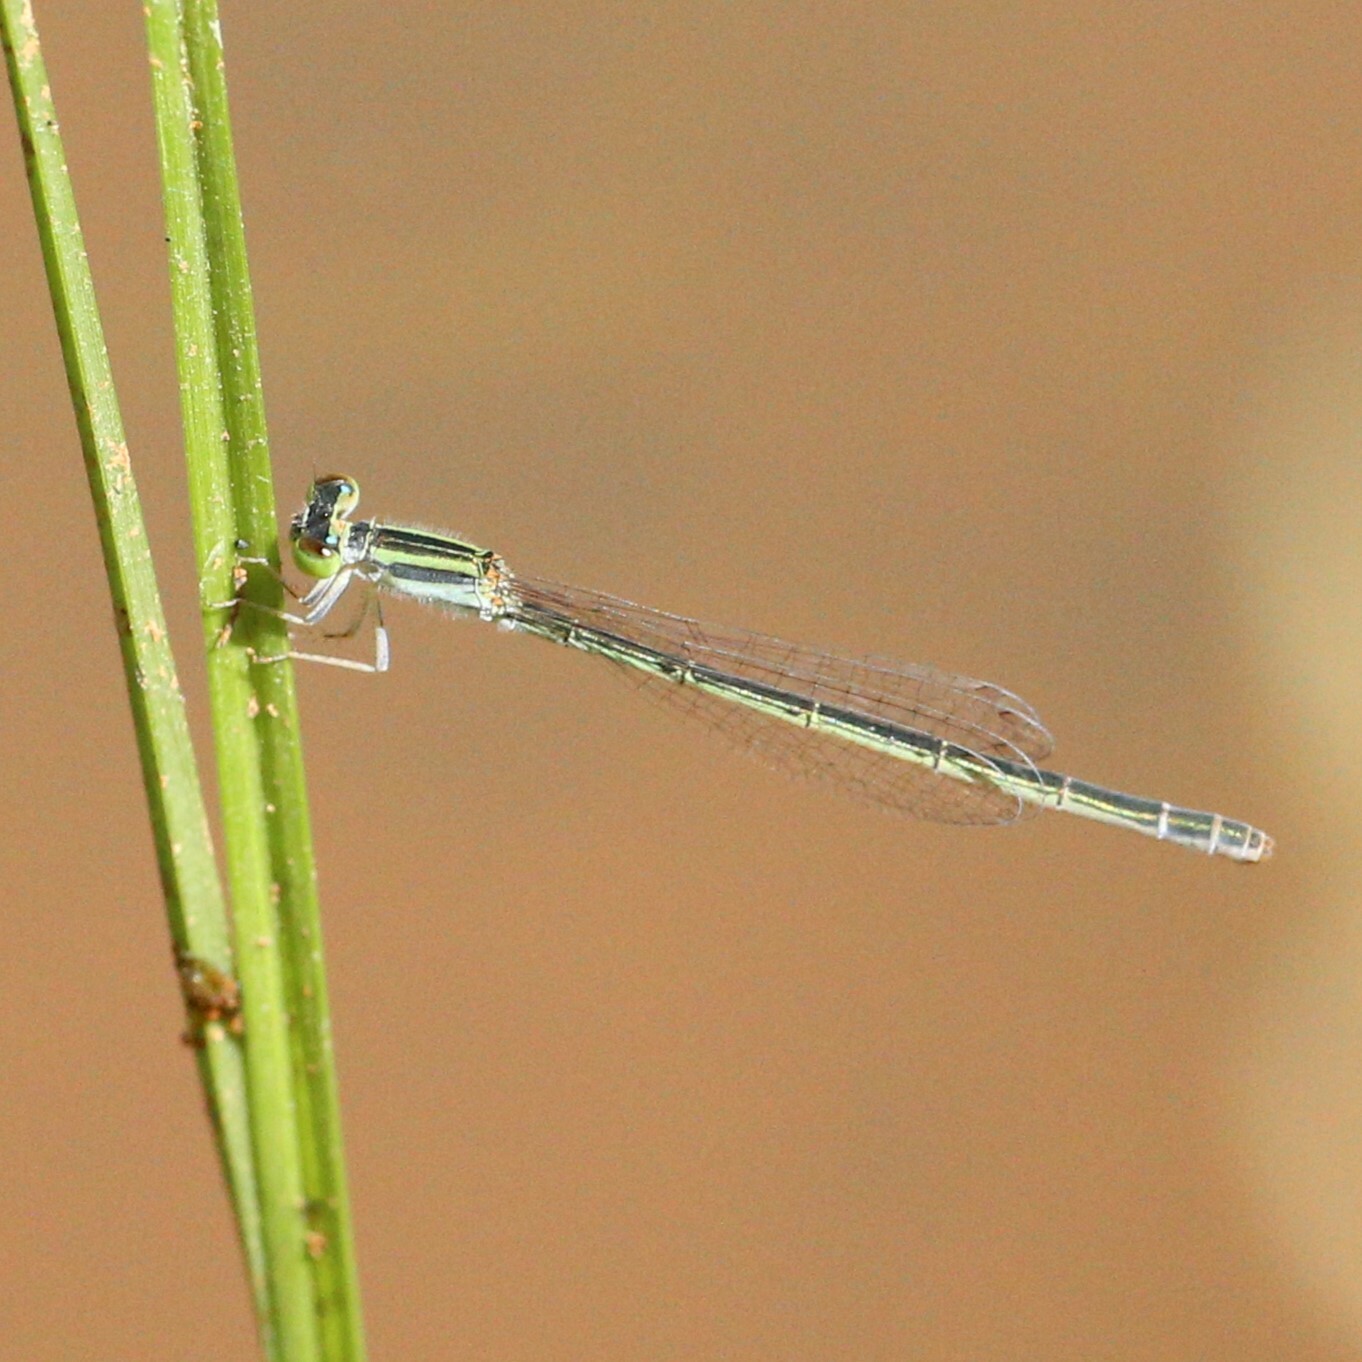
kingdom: Animalia
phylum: Arthropoda
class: Insecta
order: Odonata
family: Coenagrionidae
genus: Ischnura
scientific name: Ischnura aurora
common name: Gossamer damselfly
